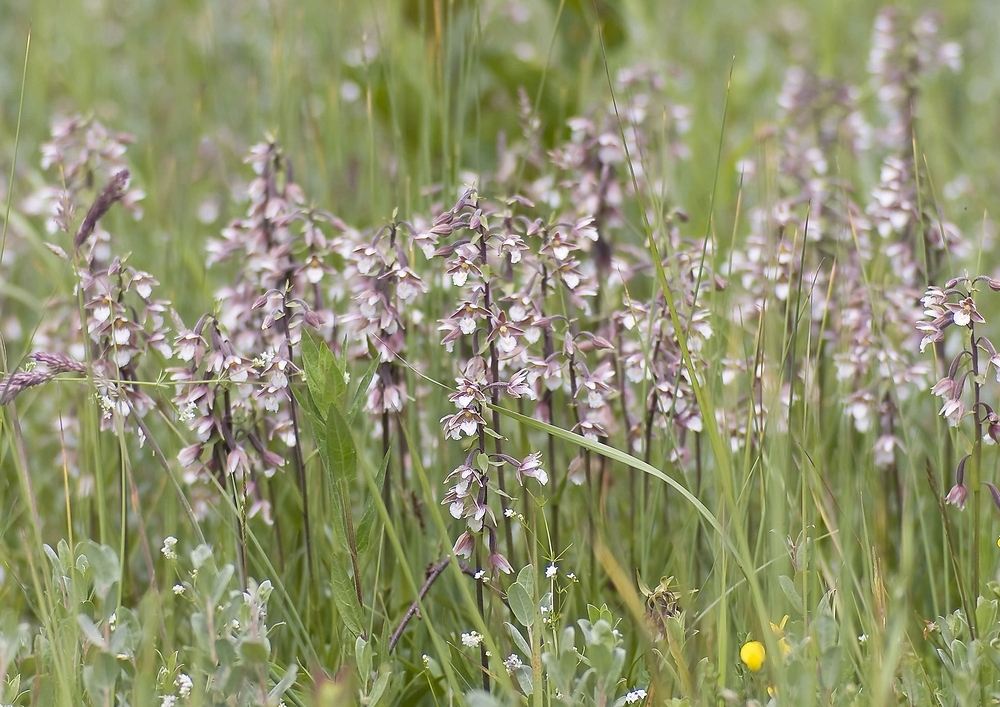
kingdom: Plantae
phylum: Tracheophyta
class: Liliopsida
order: Asparagales
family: Orchidaceae
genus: Epipactis
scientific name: Epipactis palustris
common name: Marsh helleborine
